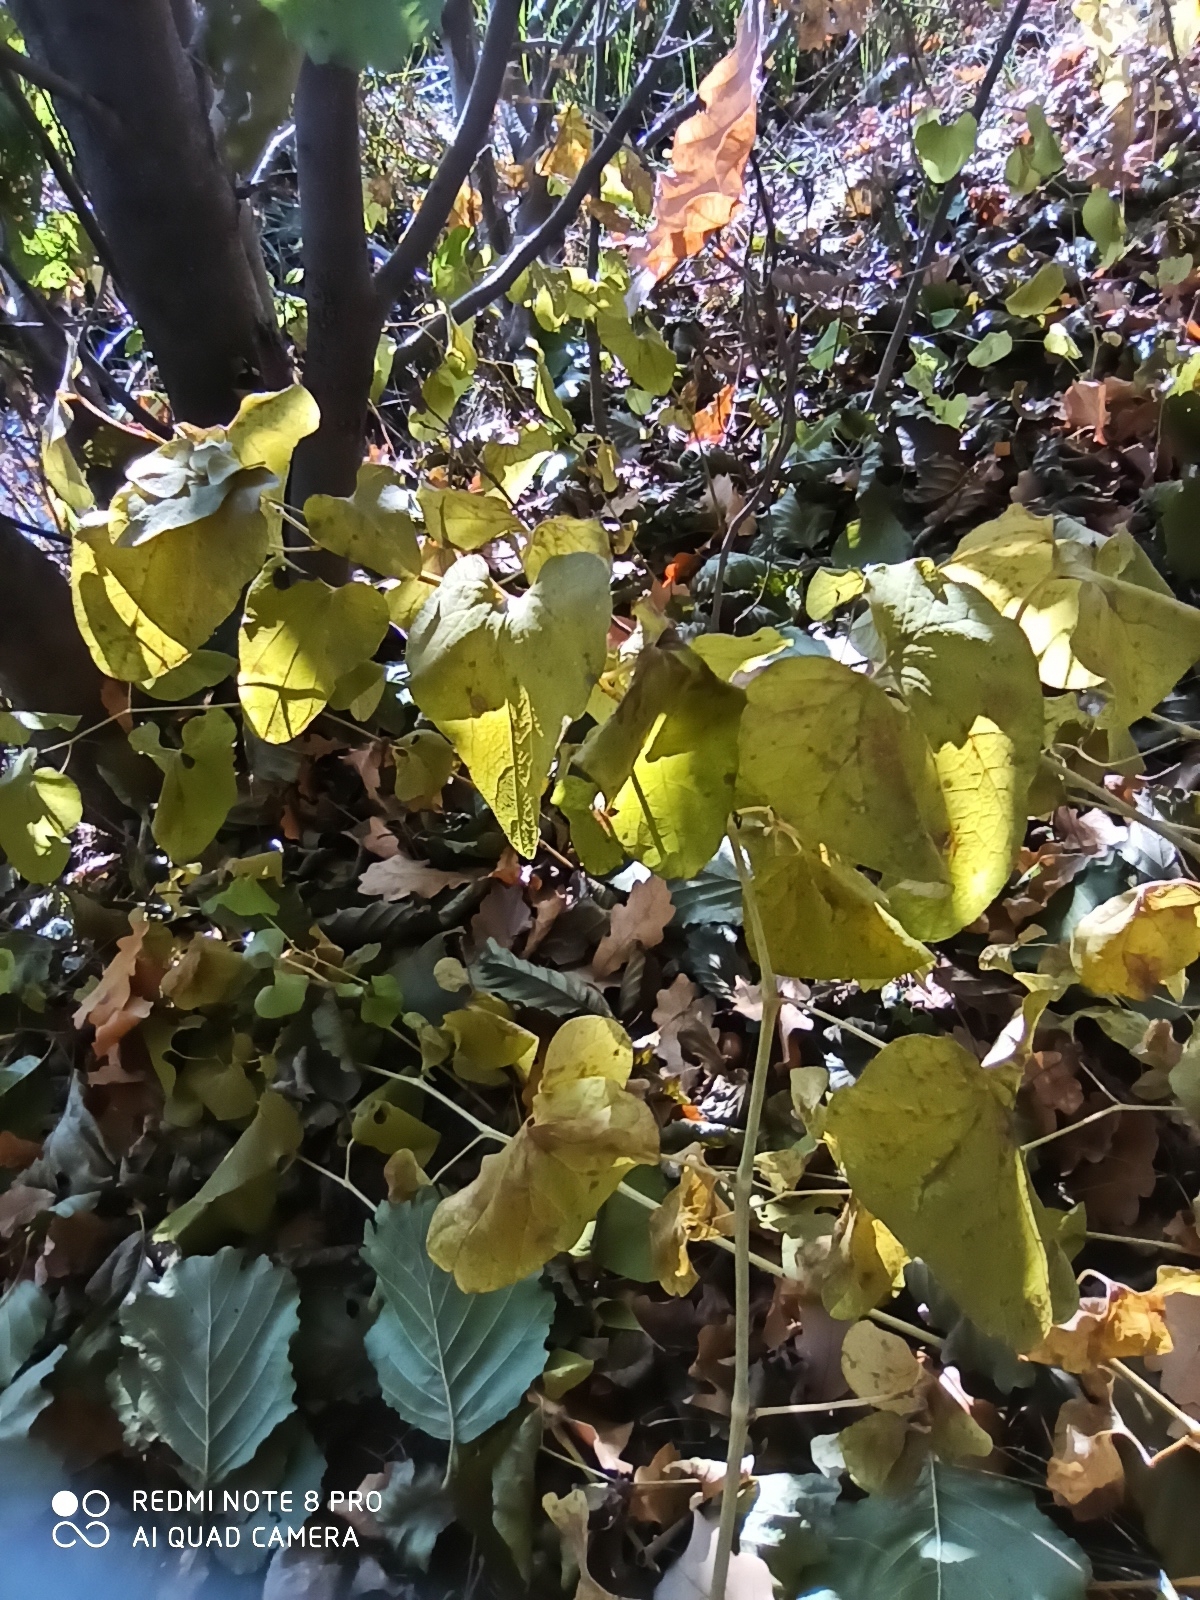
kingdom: Plantae
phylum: Tracheophyta
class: Magnoliopsida
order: Piperales
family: Aristolochiaceae
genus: Aristolochia
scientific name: Aristolochia clematitis
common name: Birthwort
